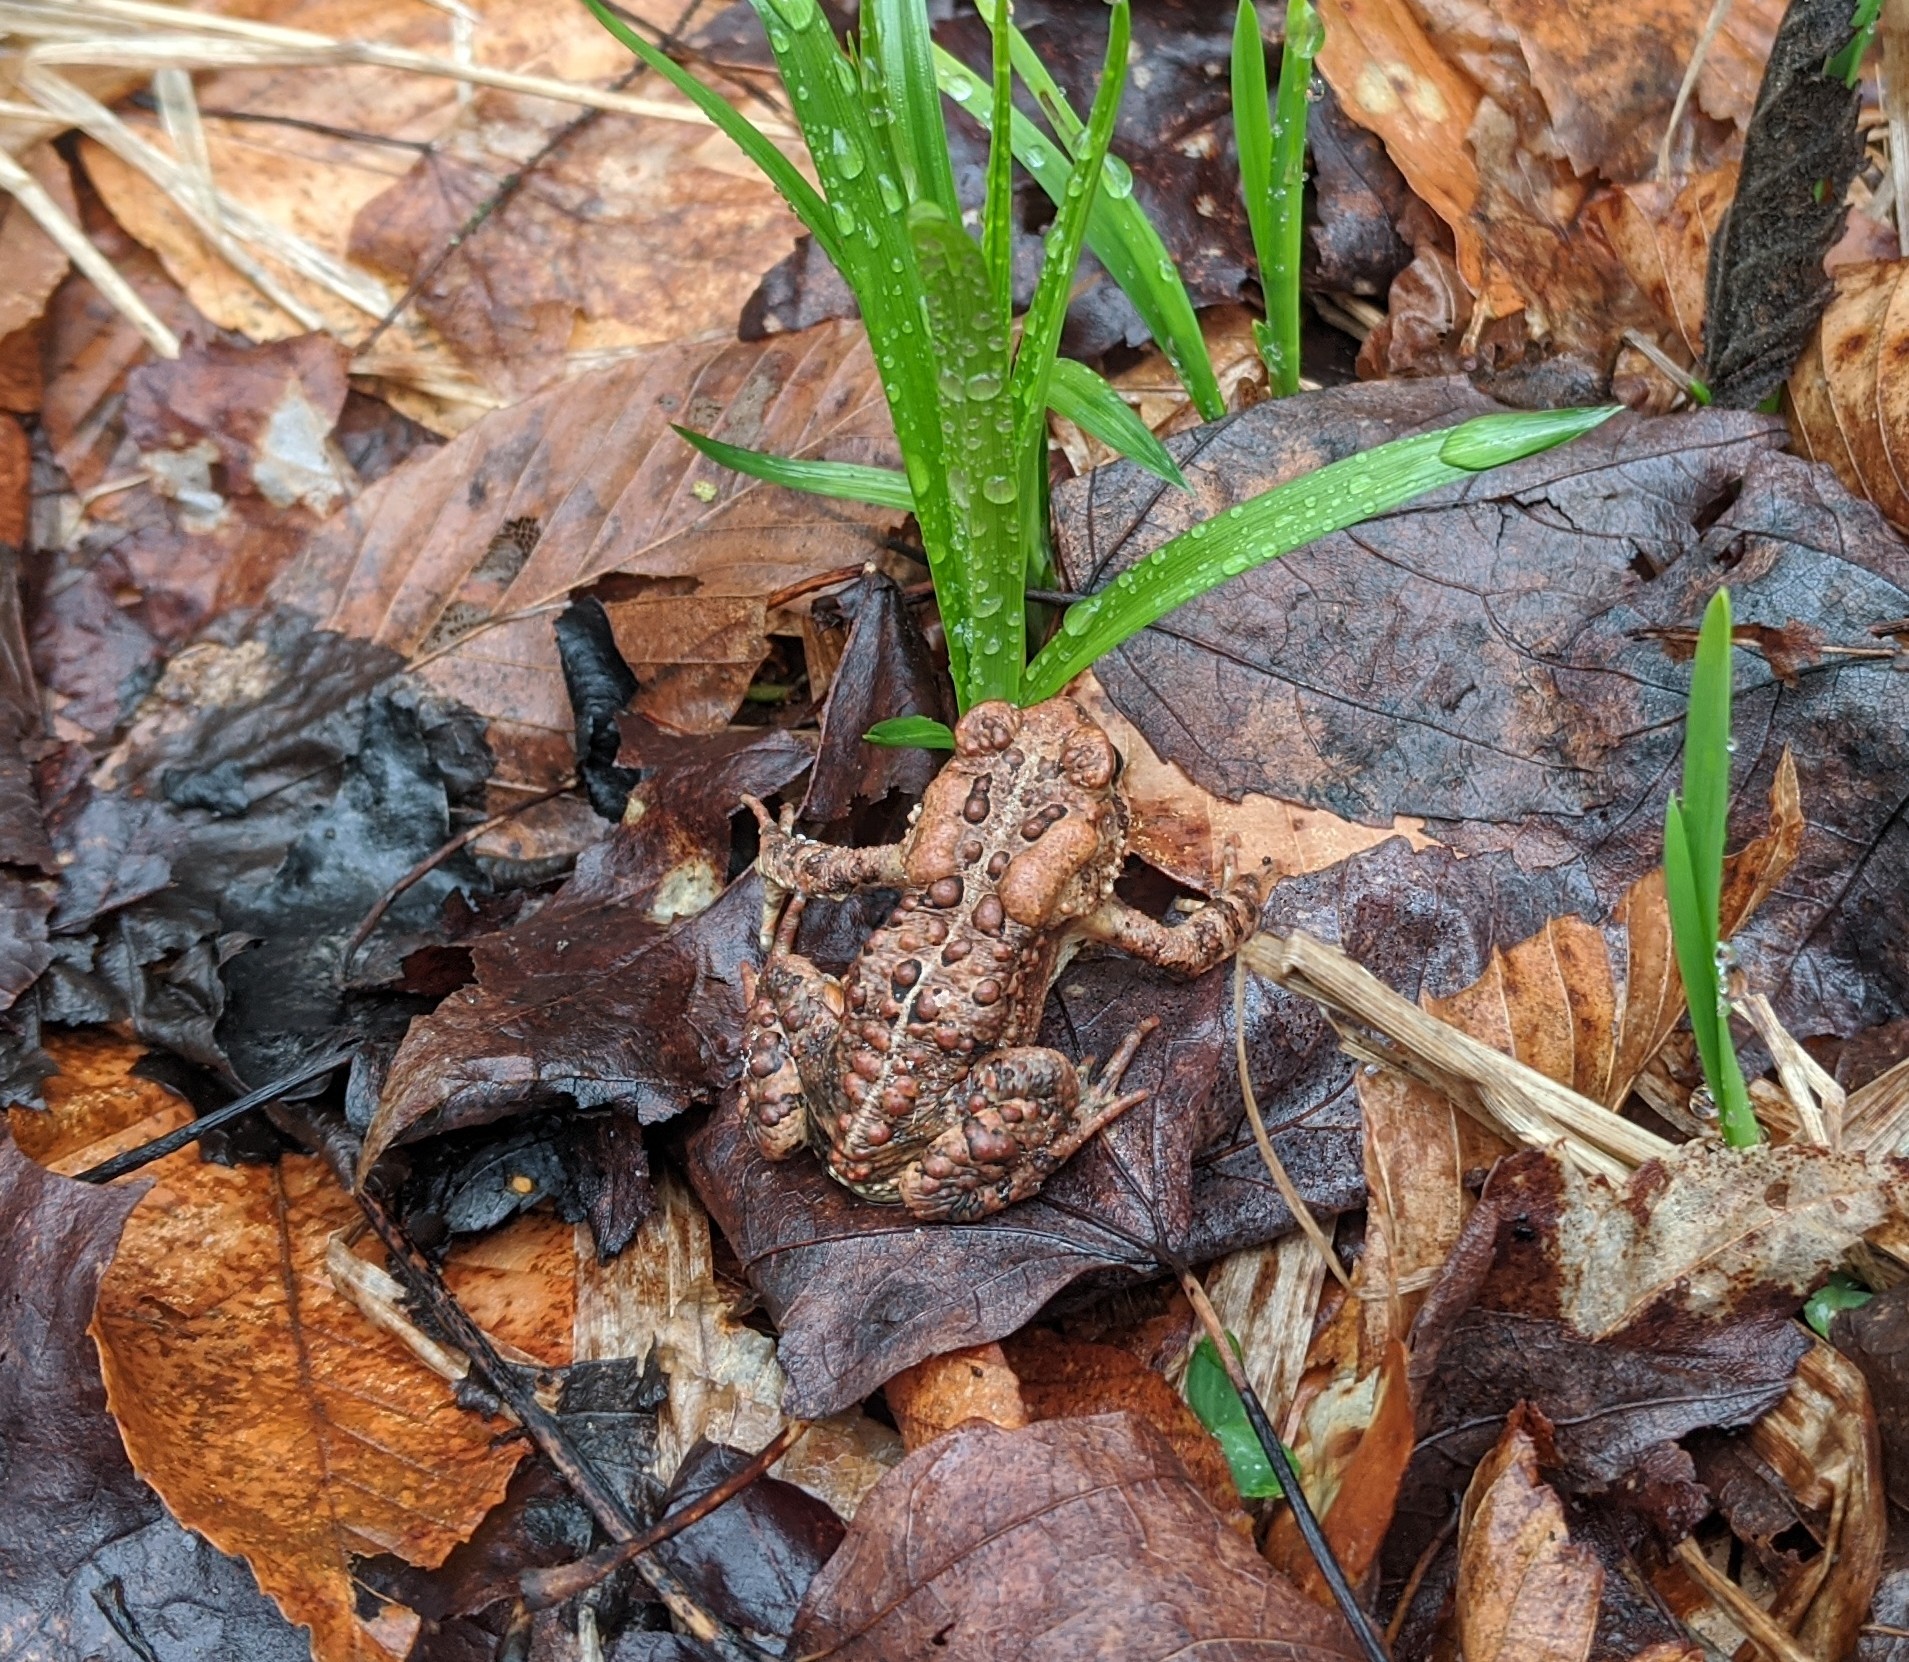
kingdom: Animalia
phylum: Chordata
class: Amphibia
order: Anura
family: Bufonidae
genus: Anaxyrus
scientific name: Anaxyrus americanus
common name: American toad
